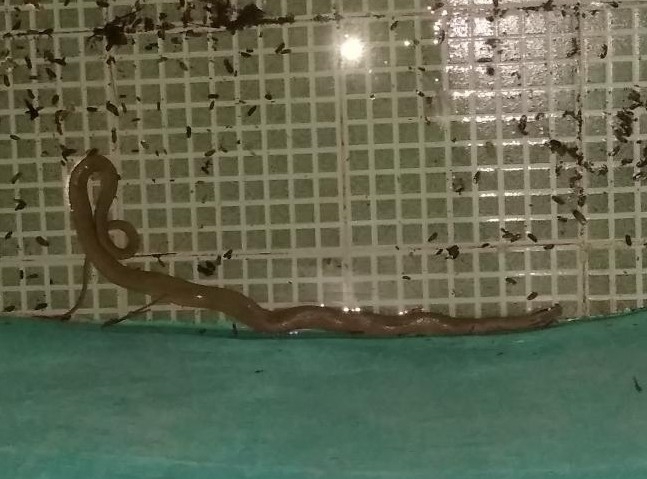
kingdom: Animalia
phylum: Chordata
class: Squamata
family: Colubridae
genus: Conophis
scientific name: Conophis lineatus
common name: Road guarder
